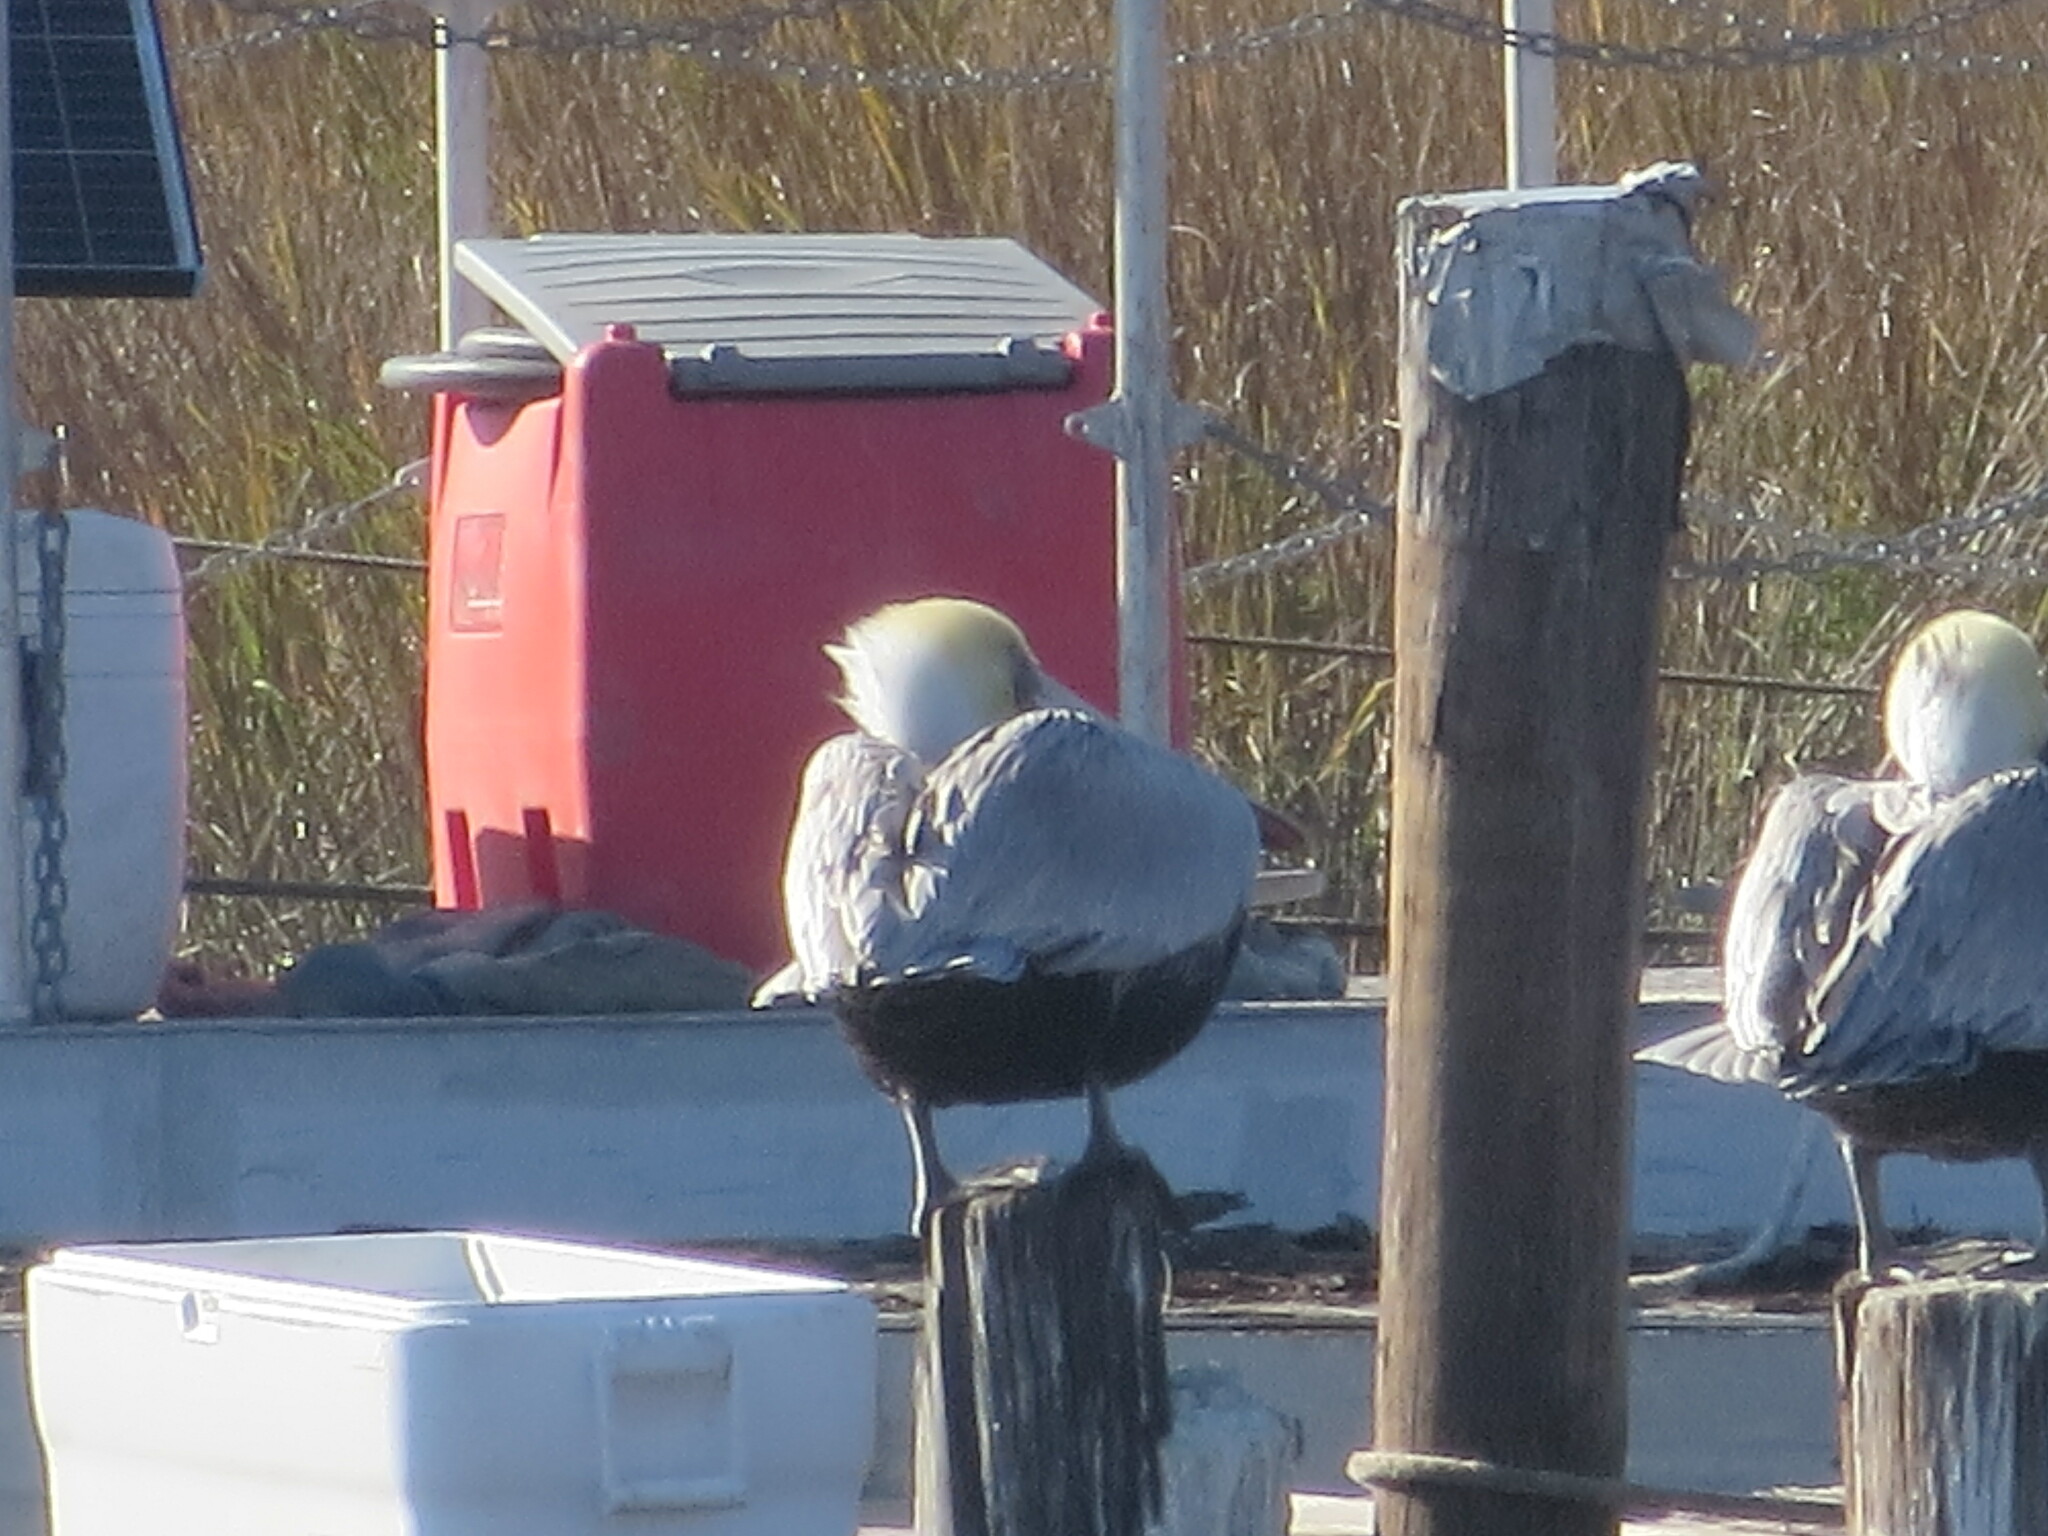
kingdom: Animalia
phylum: Chordata
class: Aves
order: Pelecaniformes
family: Pelecanidae
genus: Pelecanus
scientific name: Pelecanus occidentalis
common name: Brown pelican
